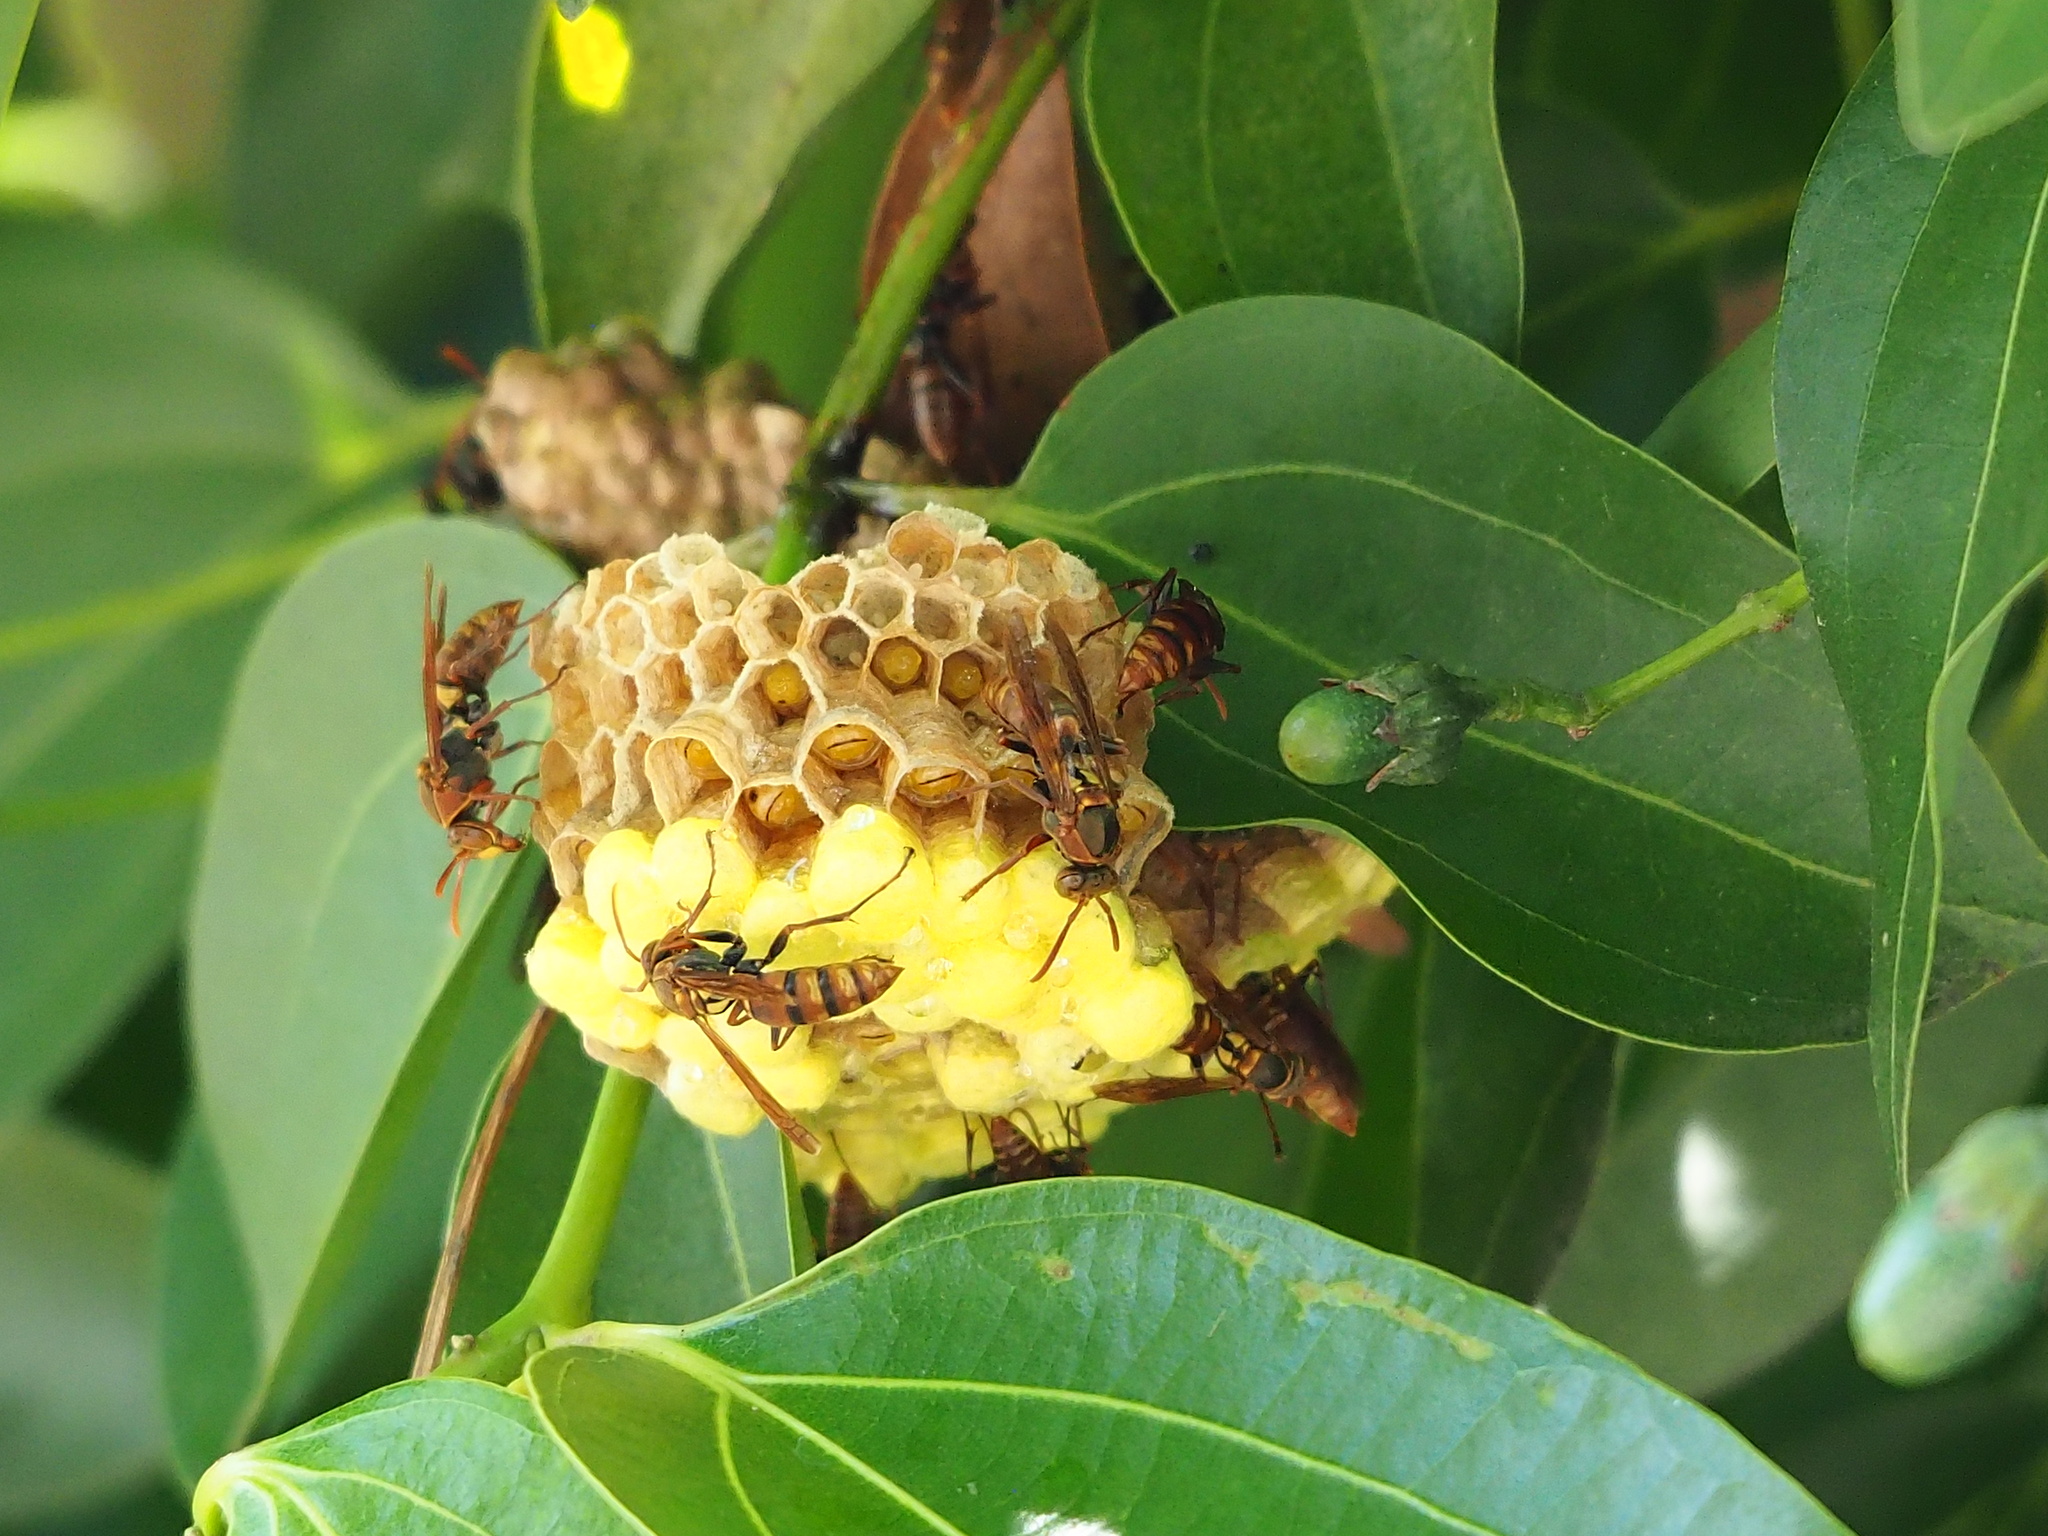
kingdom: Animalia
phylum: Arthropoda
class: Insecta
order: Hymenoptera
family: Eumenidae
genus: Polistes
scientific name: Polistes takasagonus
